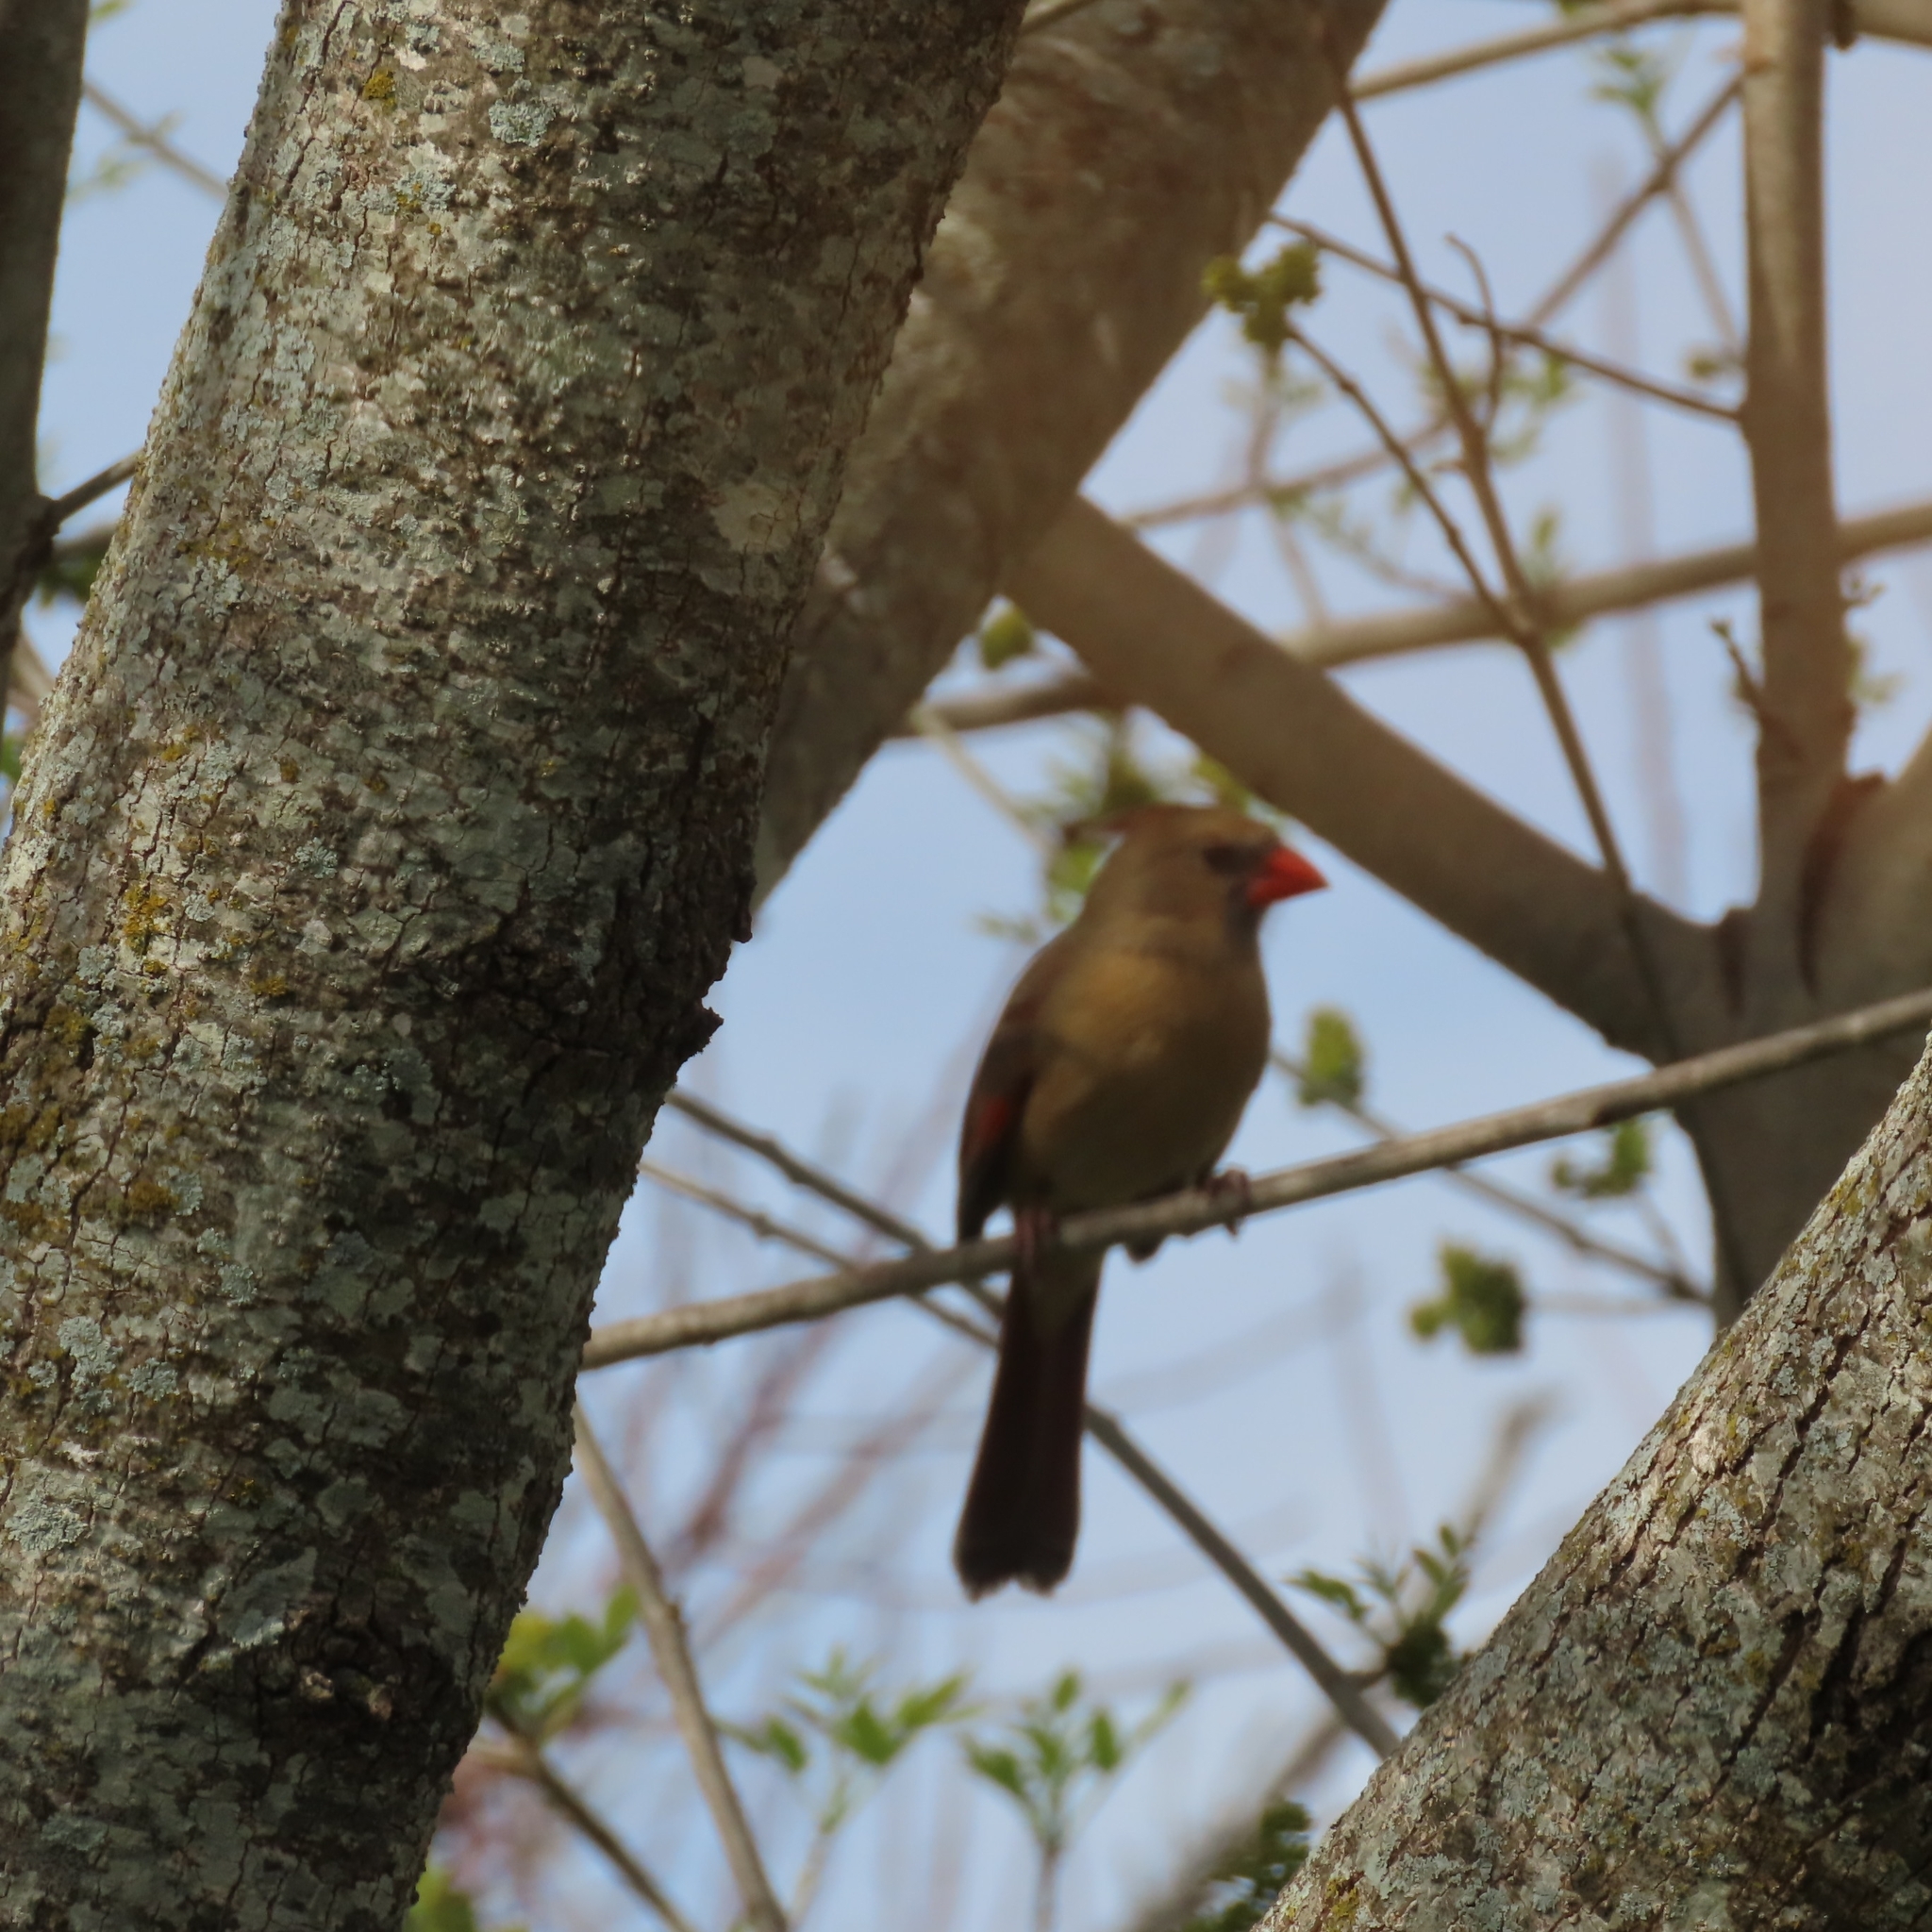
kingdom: Animalia
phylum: Chordata
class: Aves
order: Passeriformes
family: Cardinalidae
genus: Cardinalis
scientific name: Cardinalis cardinalis
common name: Northern cardinal
